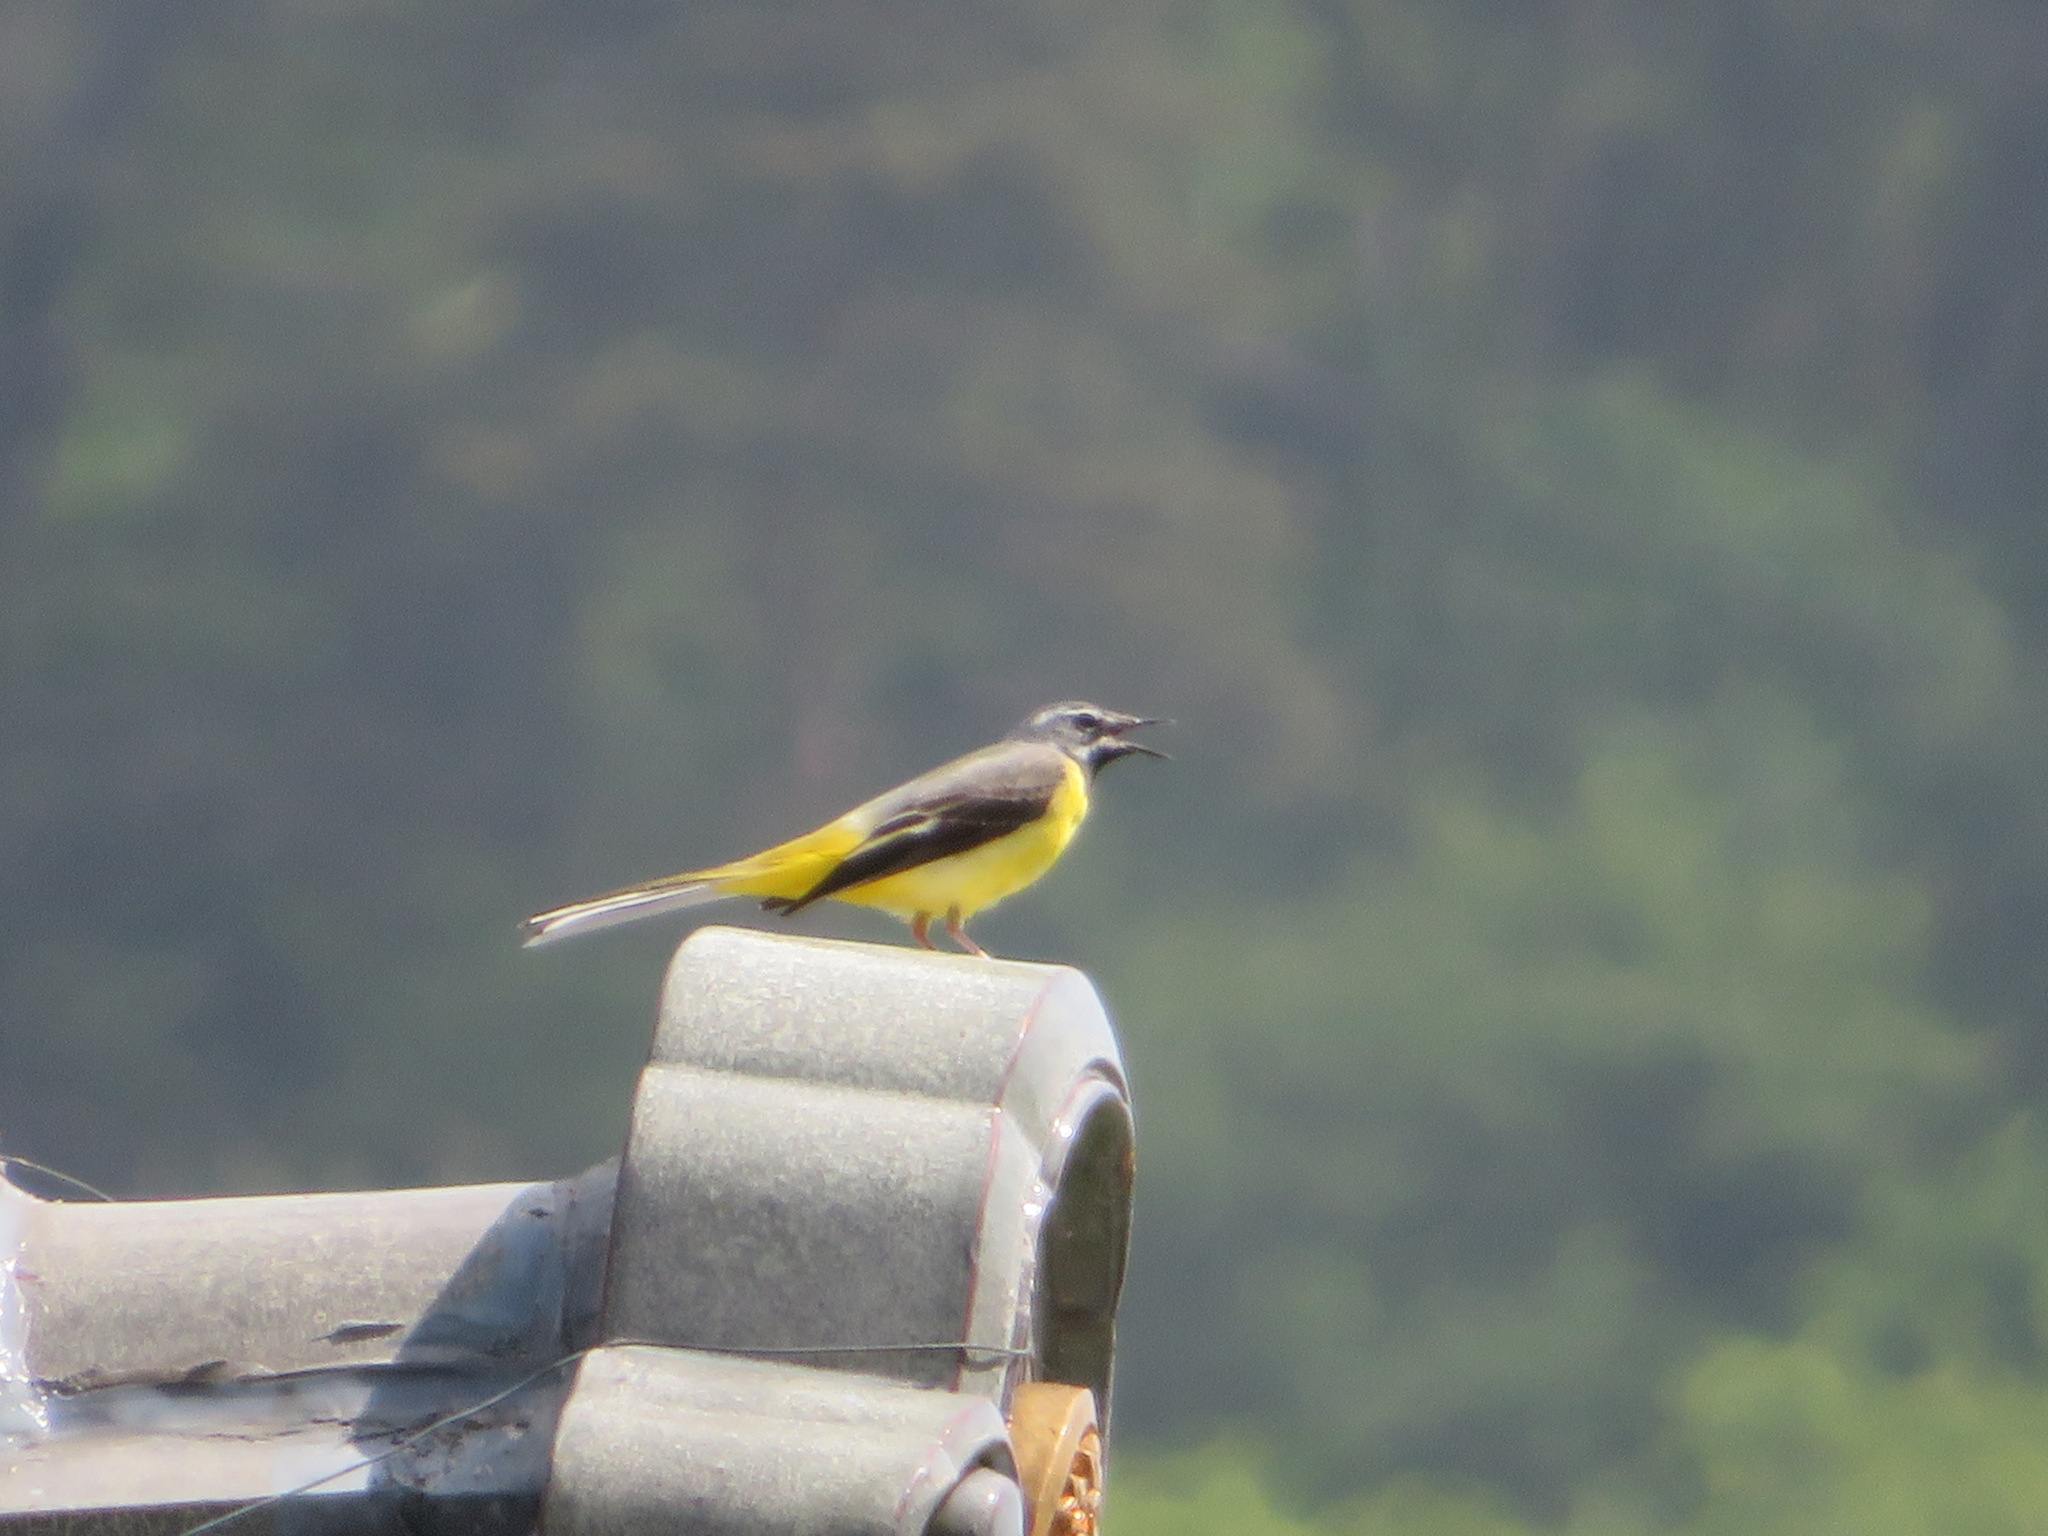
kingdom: Animalia
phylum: Chordata
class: Aves
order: Passeriformes
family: Motacillidae
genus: Motacilla
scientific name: Motacilla cinerea
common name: Grey wagtail
